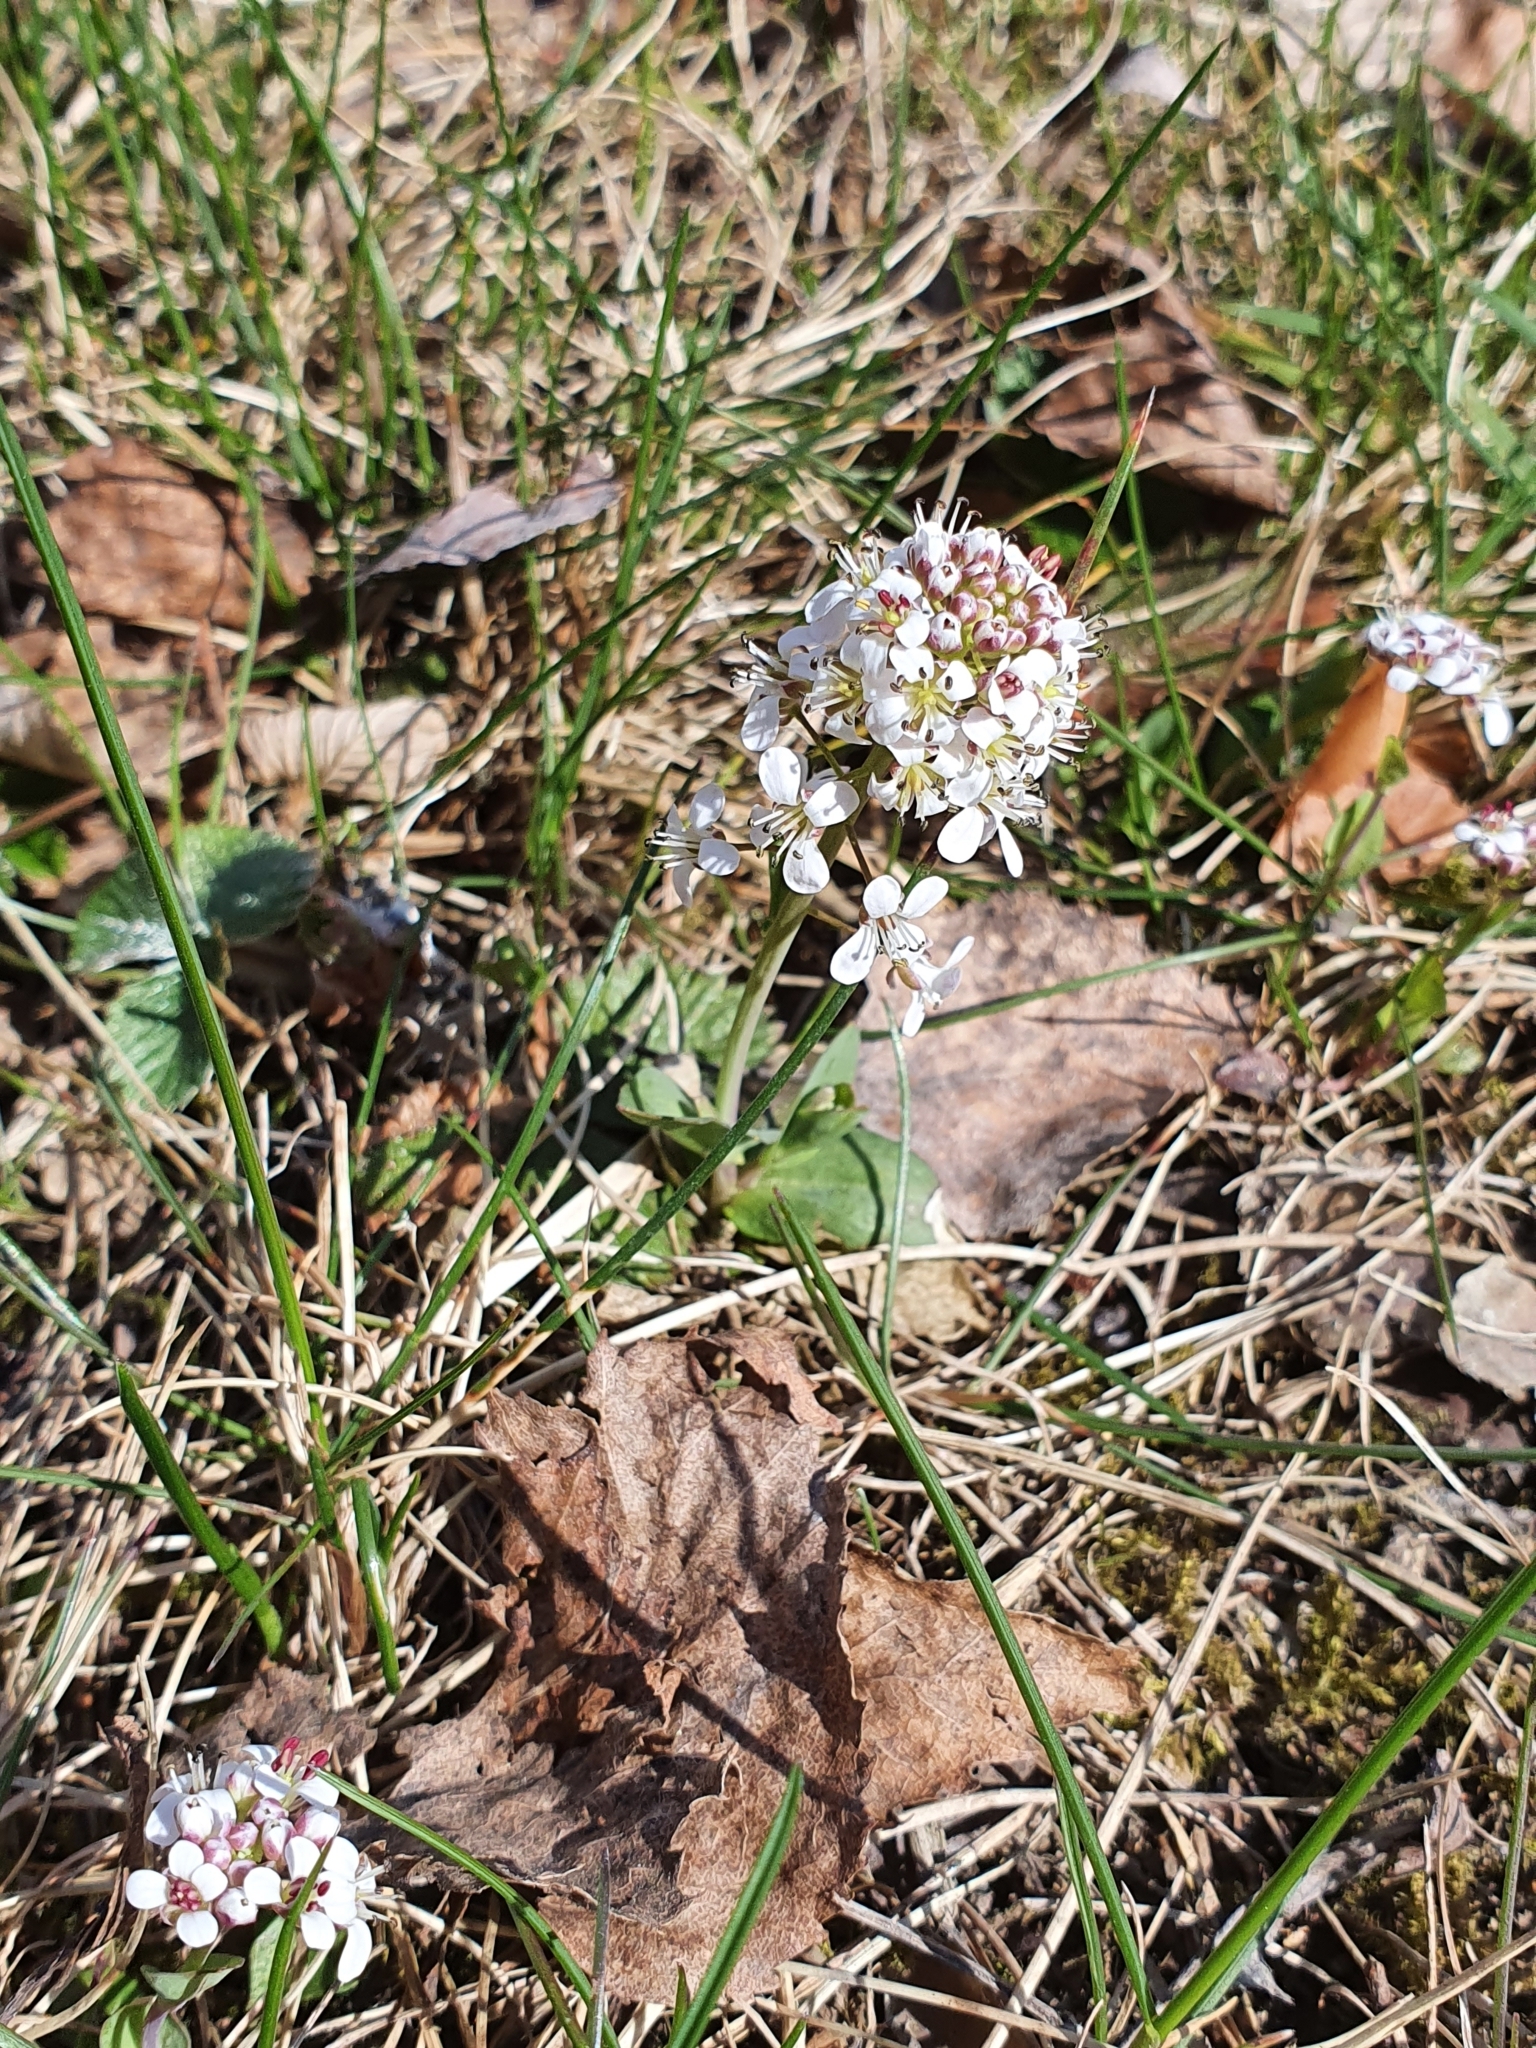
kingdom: Plantae
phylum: Tracheophyta
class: Magnoliopsida
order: Brassicales
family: Brassicaceae
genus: Noccaea
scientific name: Noccaea caerulescens
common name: Alpine pennycress
